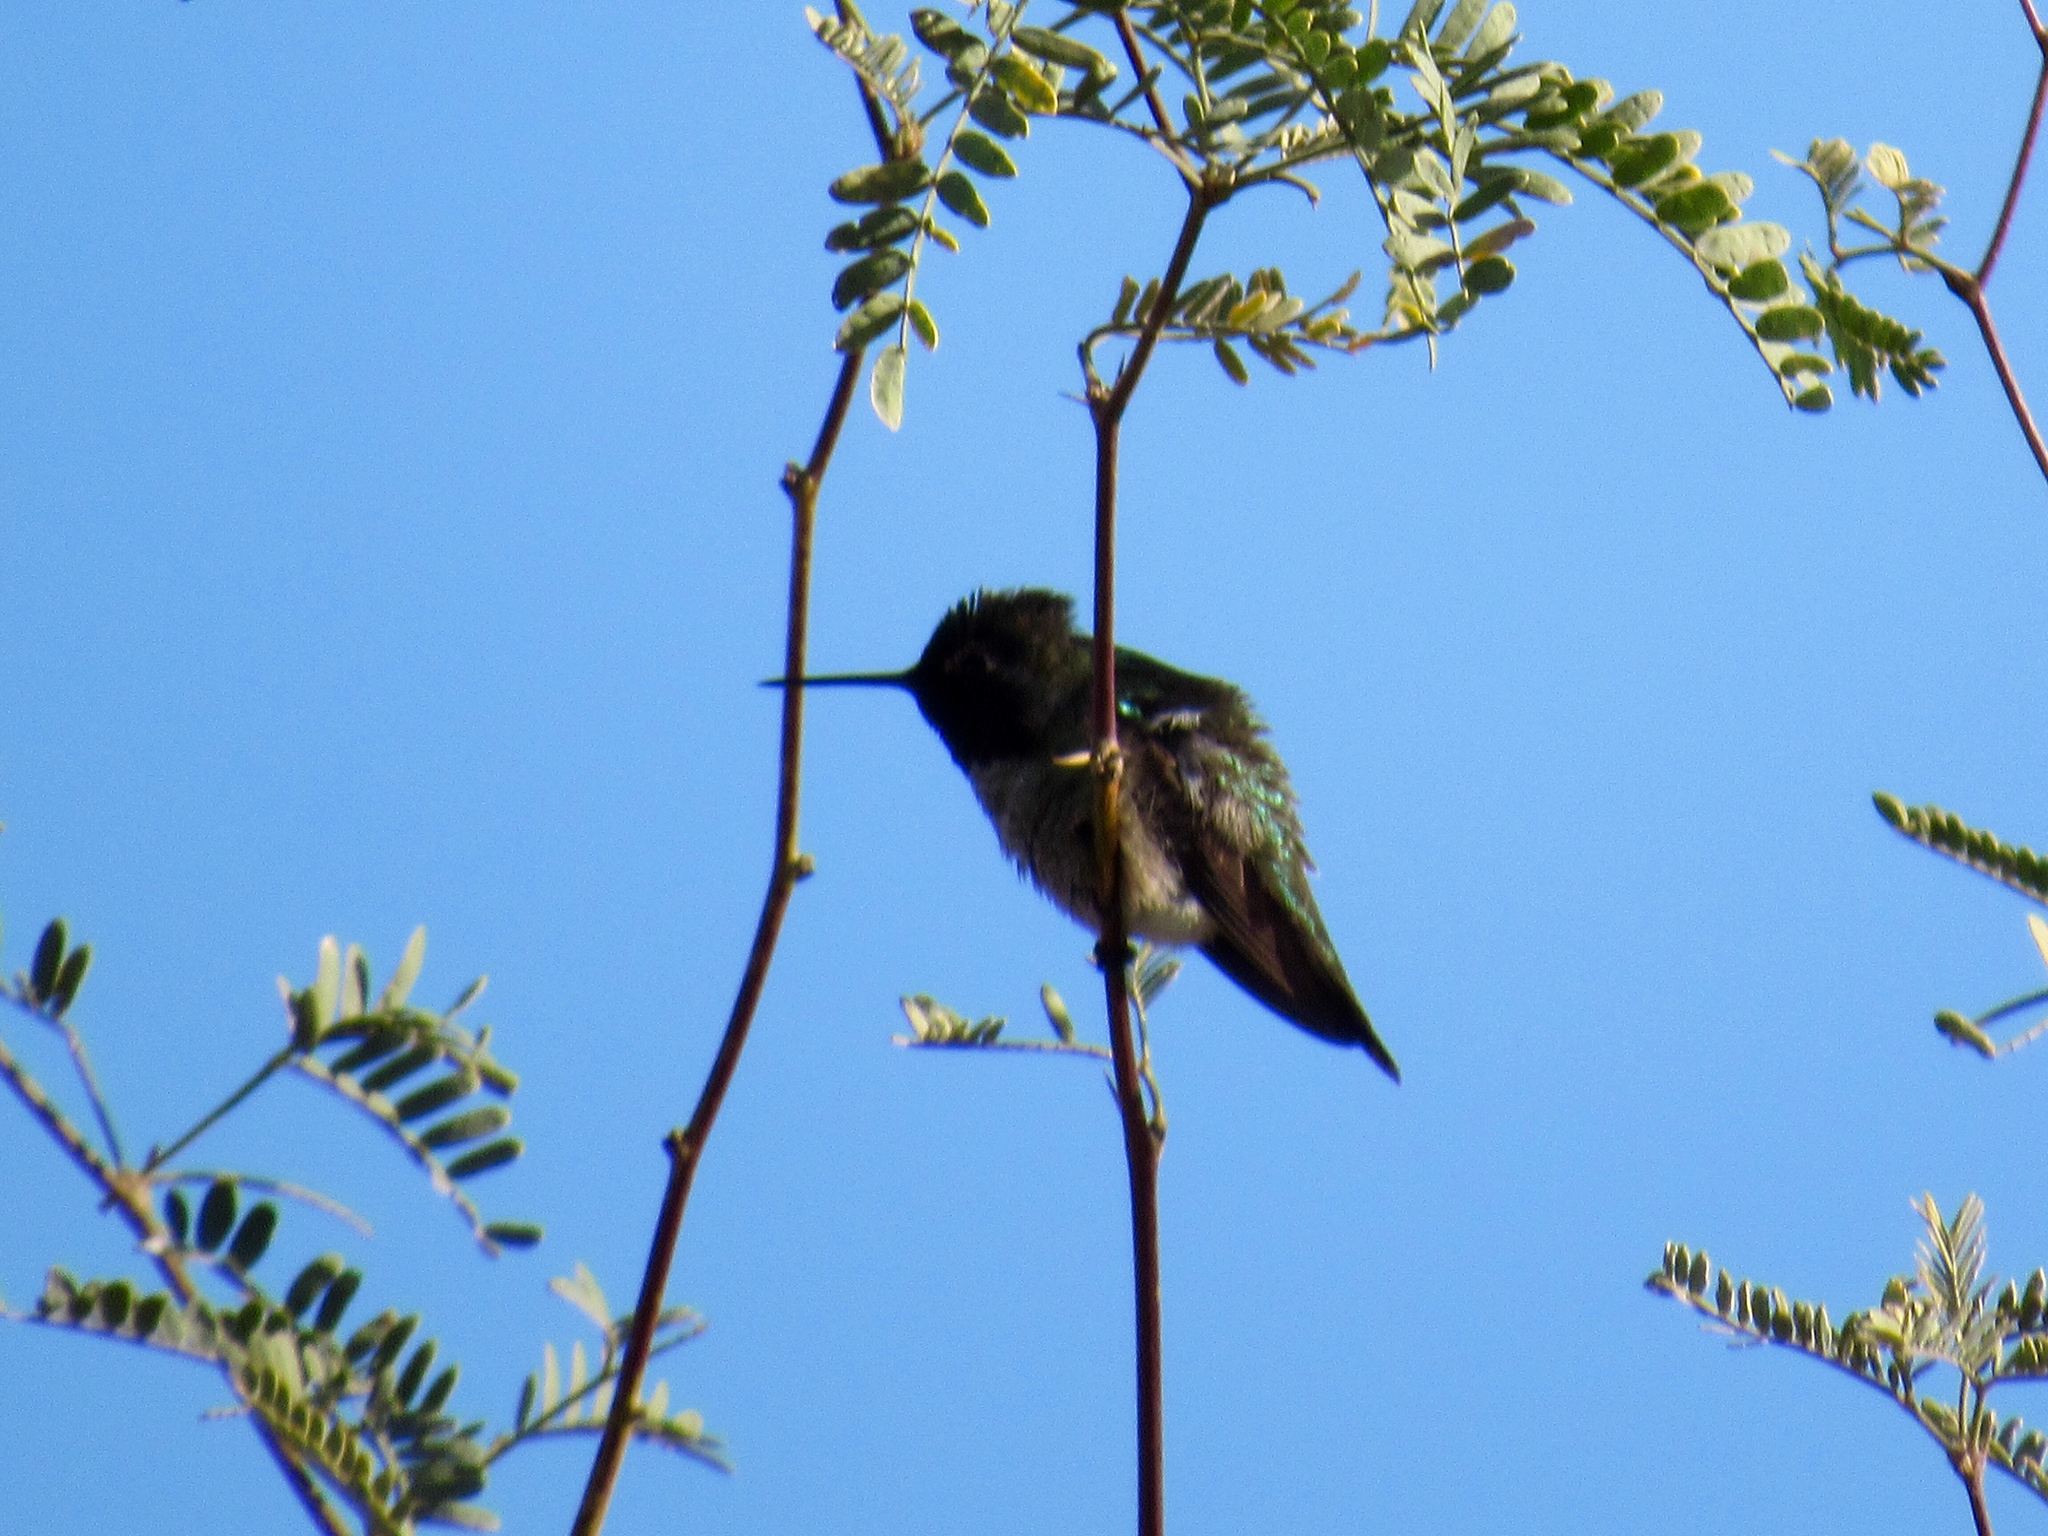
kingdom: Animalia
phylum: Chordata
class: Aves
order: Apodiformes
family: Trochilidae
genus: Calypte
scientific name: Calypte anna
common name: Anna's hummingbird
